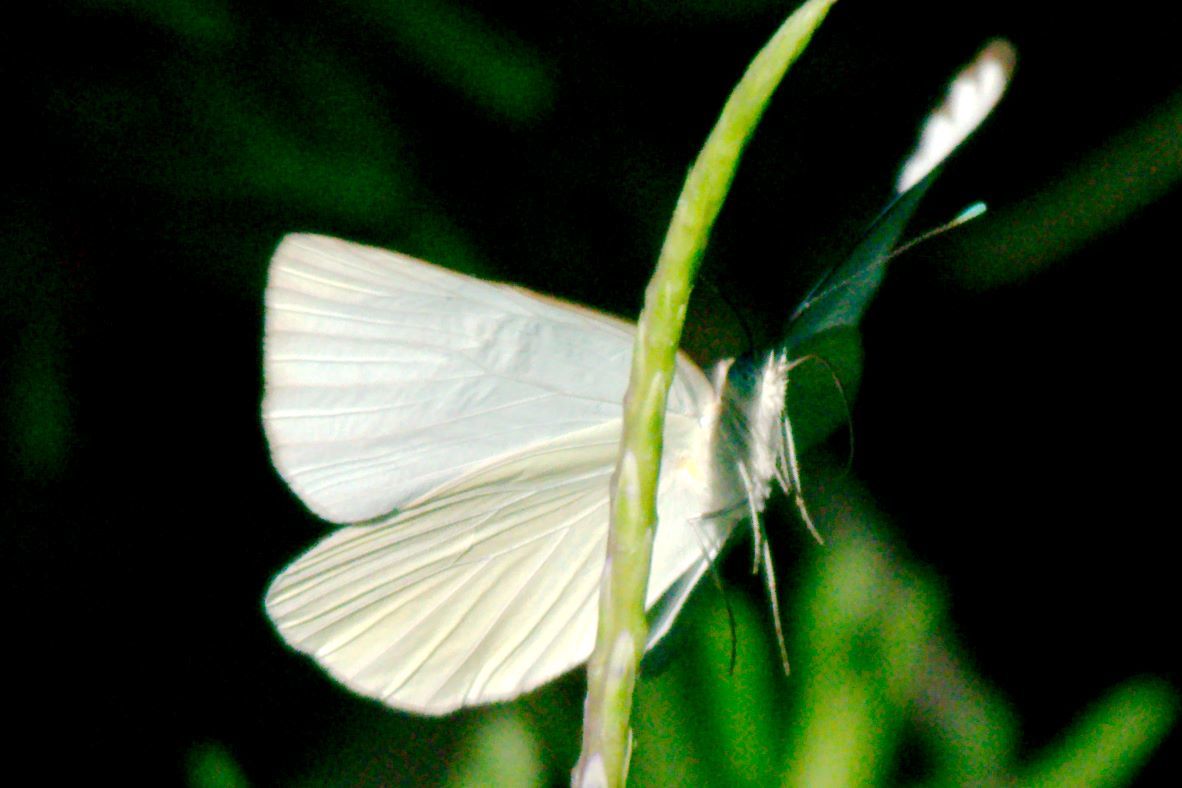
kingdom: Animalia
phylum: Arthropoda
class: Insecta
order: Lepidoptera
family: Pieridae
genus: Ascia
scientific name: Ascia monuste
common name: Great southern white
